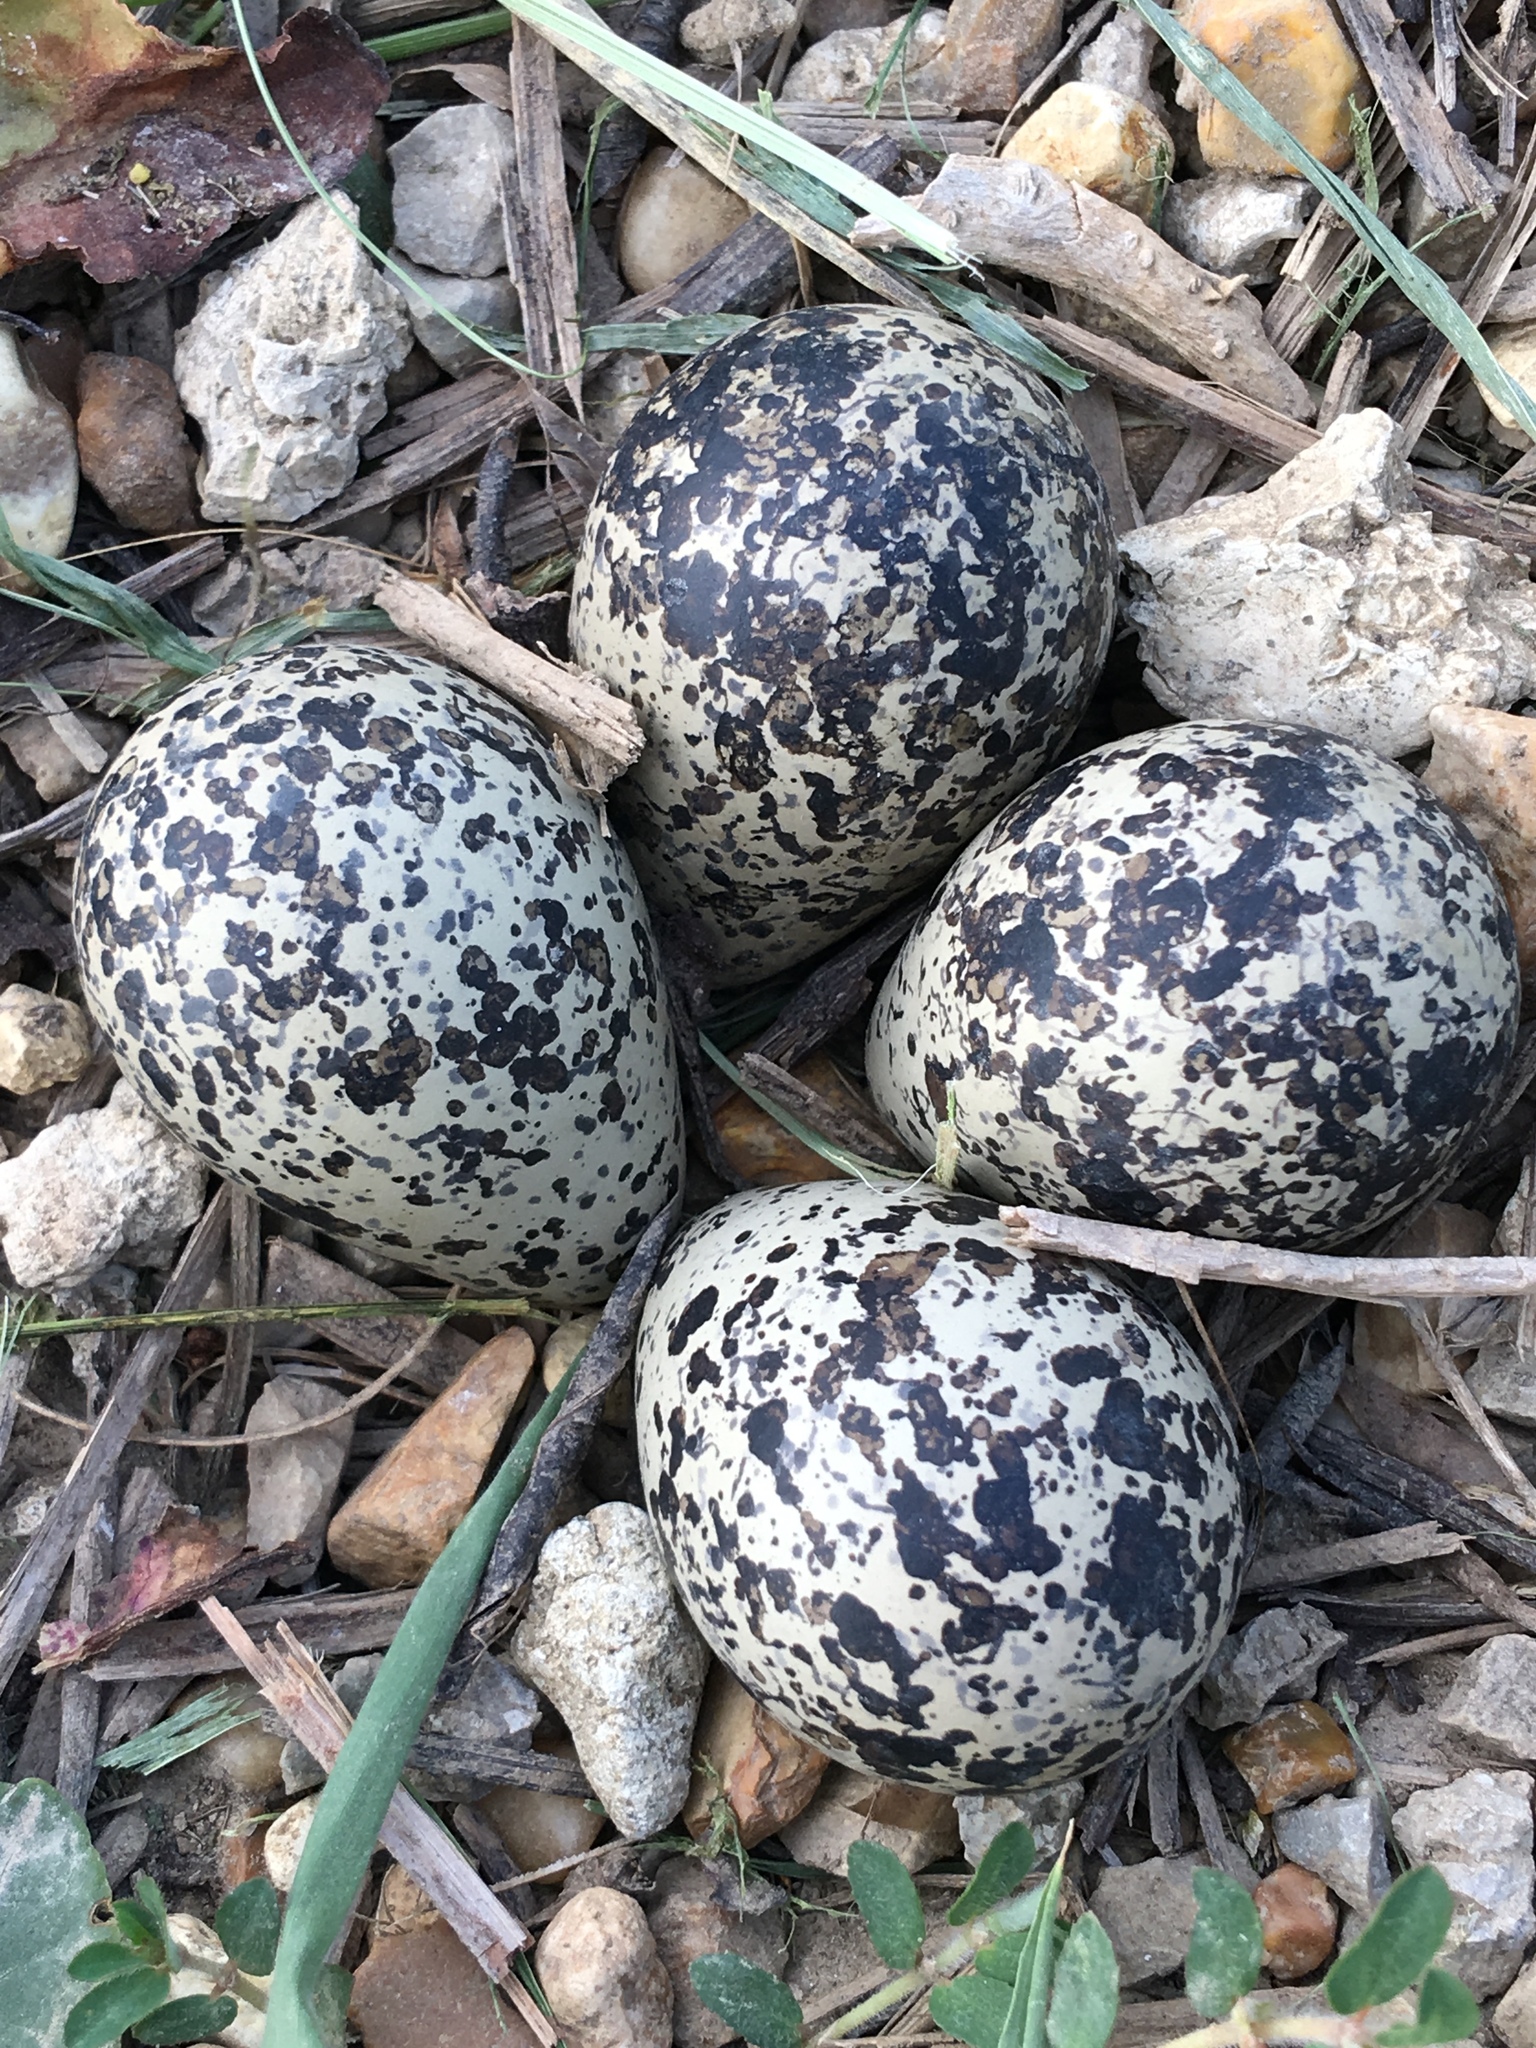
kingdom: Animalia
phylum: Chordata
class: Aves
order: Charadriiformes
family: Charadriidae
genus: Charadrius
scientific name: Charadrius vociferus
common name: Killdeer
